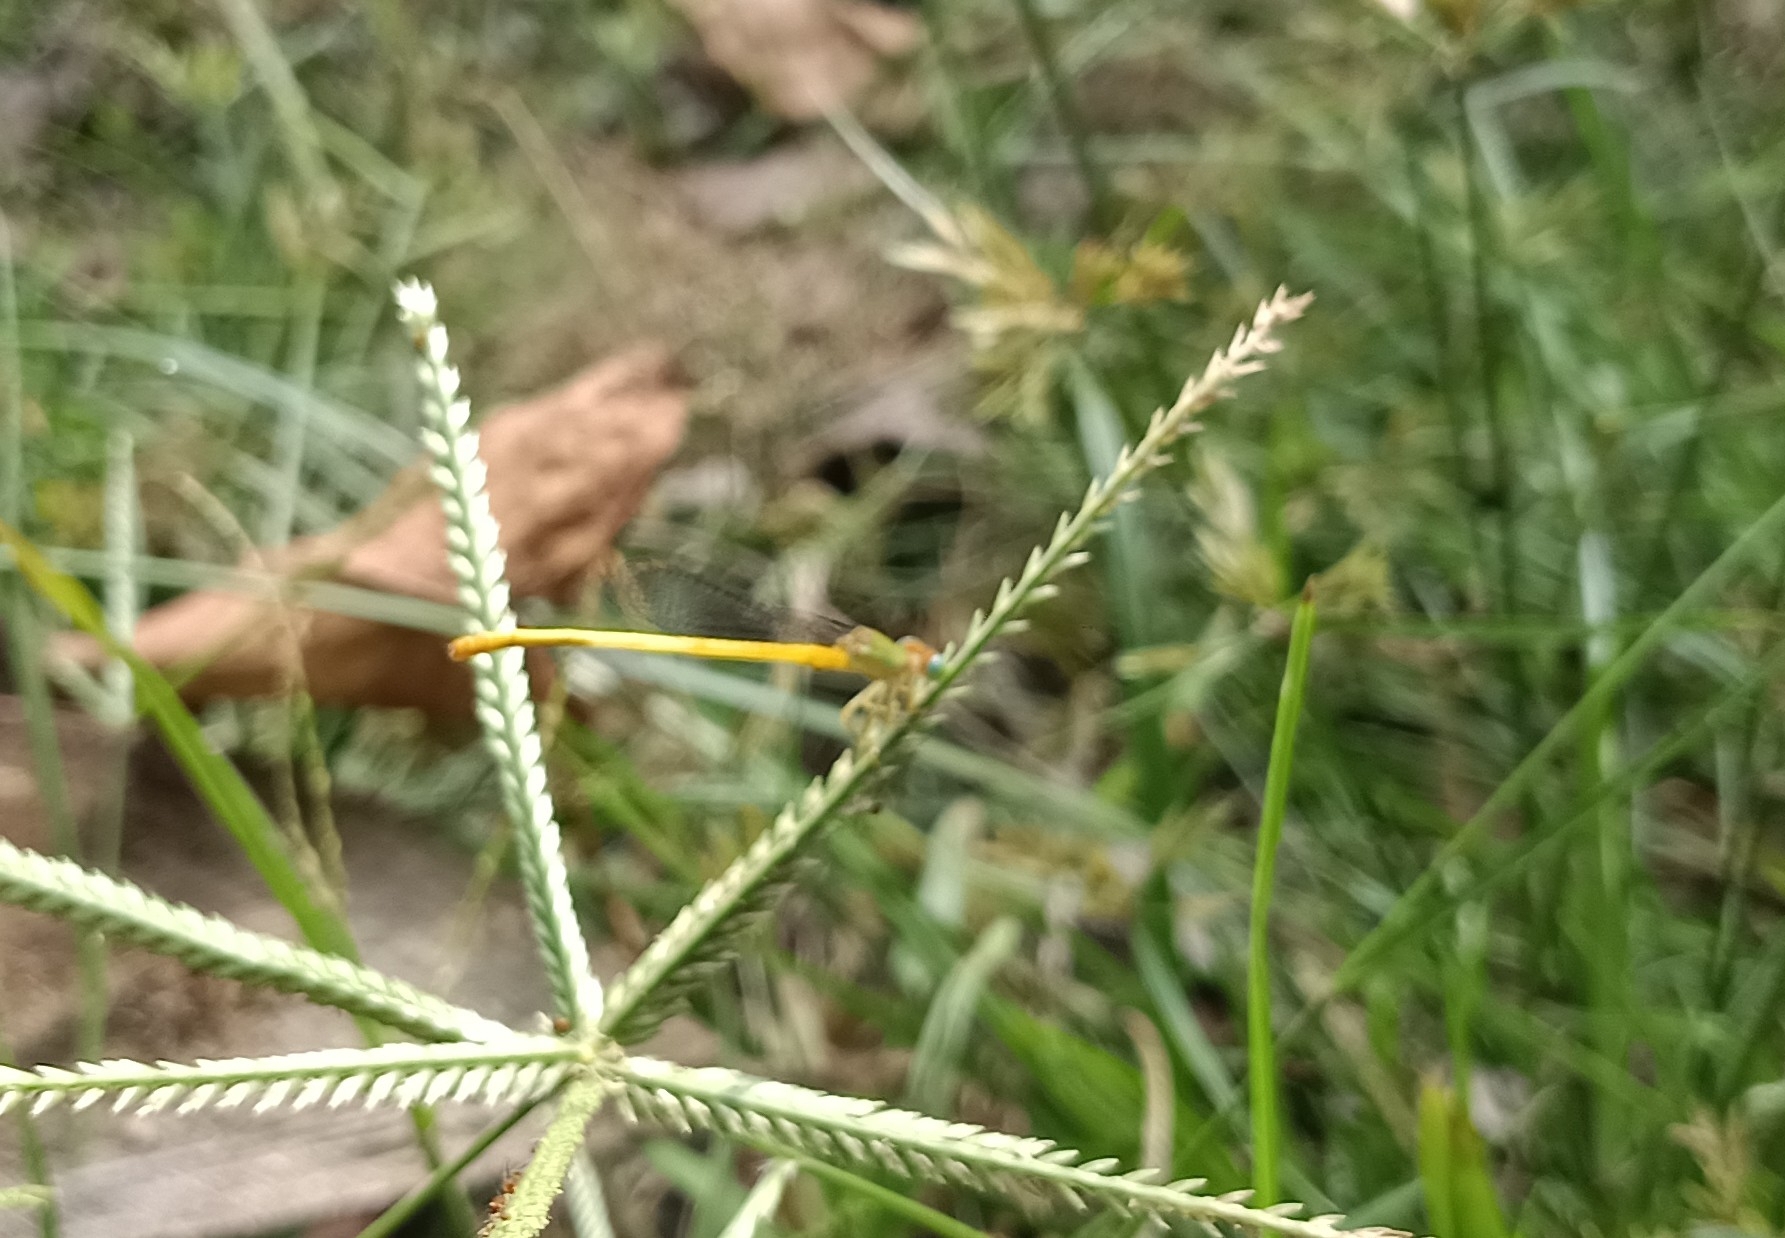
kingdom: Animalia
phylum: Arthropoda
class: Insecta
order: Odonata
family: Coenagrionidae
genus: Ceriagrion
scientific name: Ceriagrion coromandelianum
